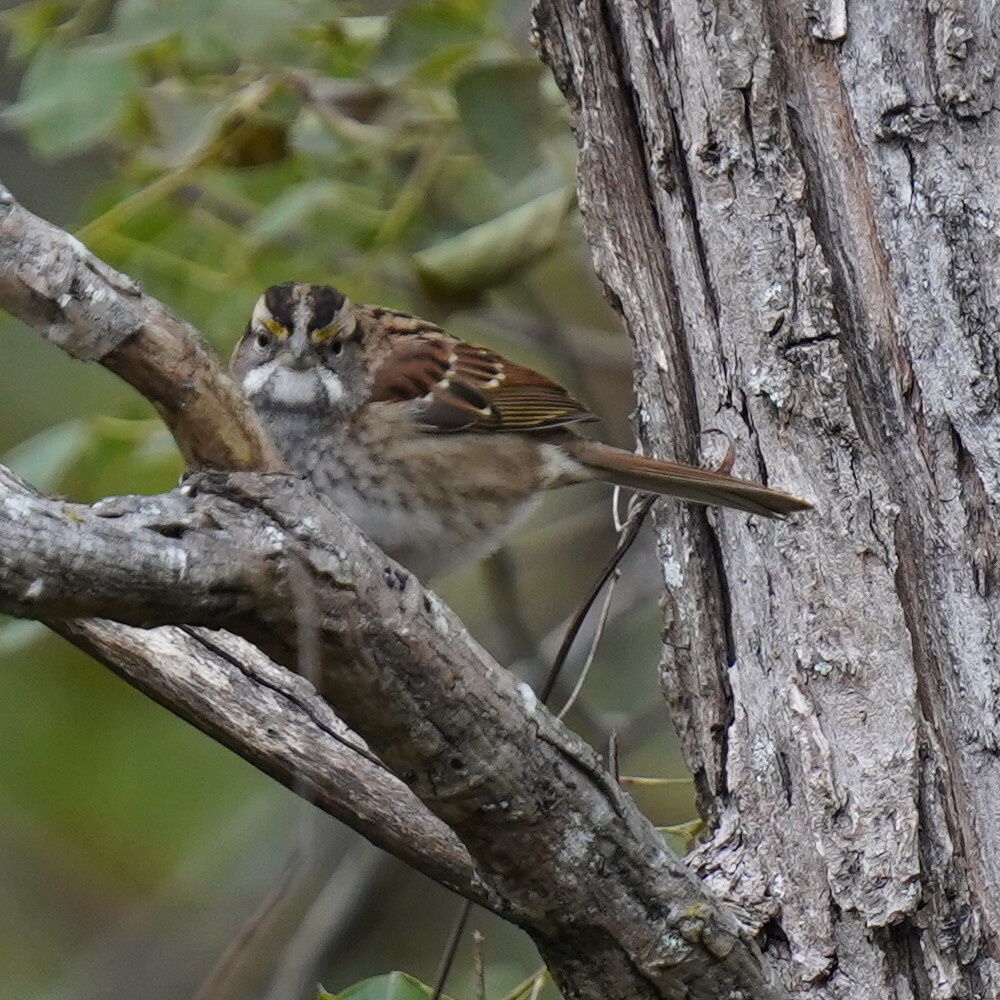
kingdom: Animalia
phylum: Chordata
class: Aves
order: Passeriformes
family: Passerellidae
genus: Zonotrichia
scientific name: Zonotrichia albicollis
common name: White-throated sparrow
